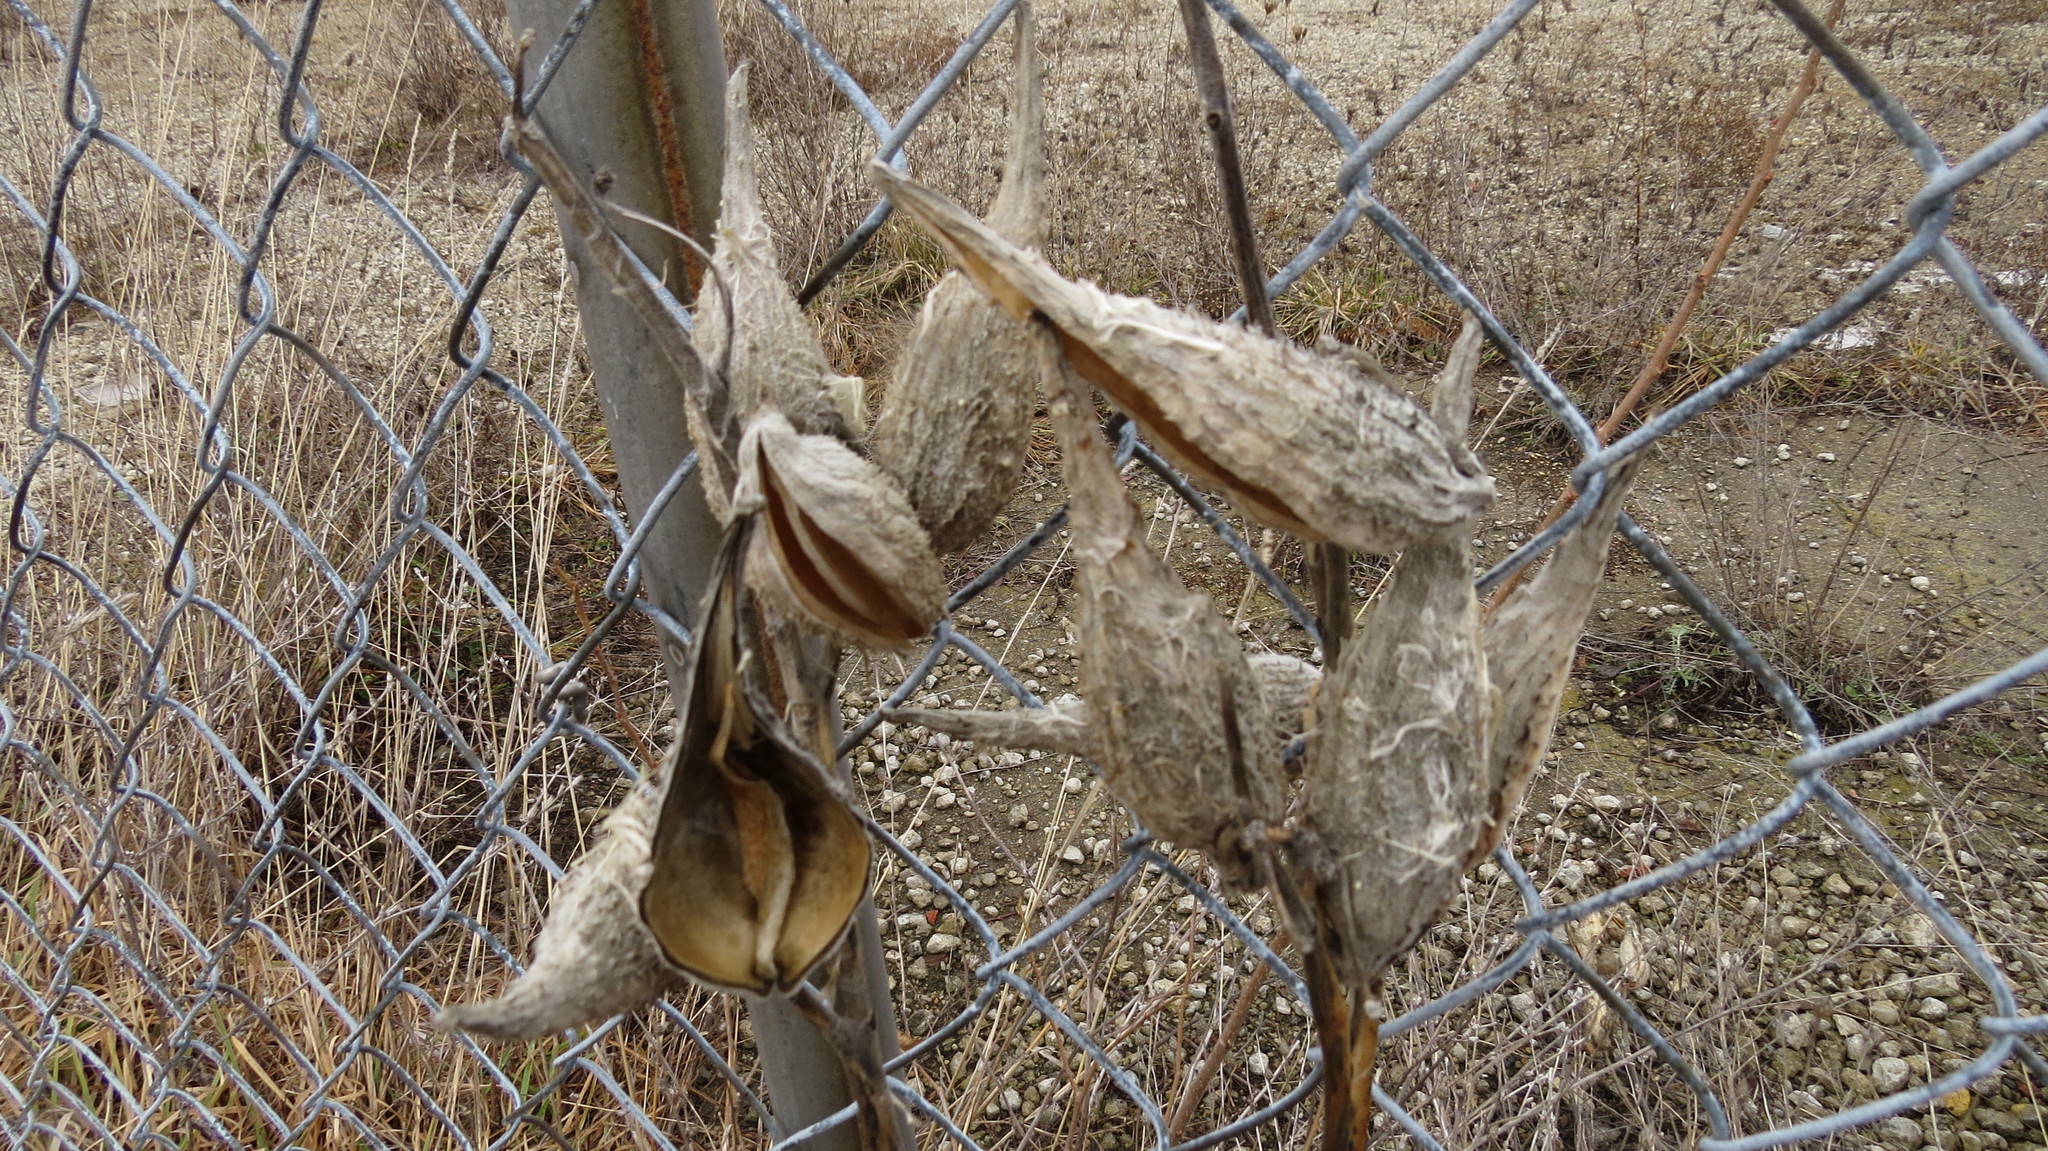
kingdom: Plantae
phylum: Tracheophyta
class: Magnoliopsida
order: Gentianales
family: Apocynaceae
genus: Asclepias
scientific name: Asclepias syriaca
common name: Common milkweed
